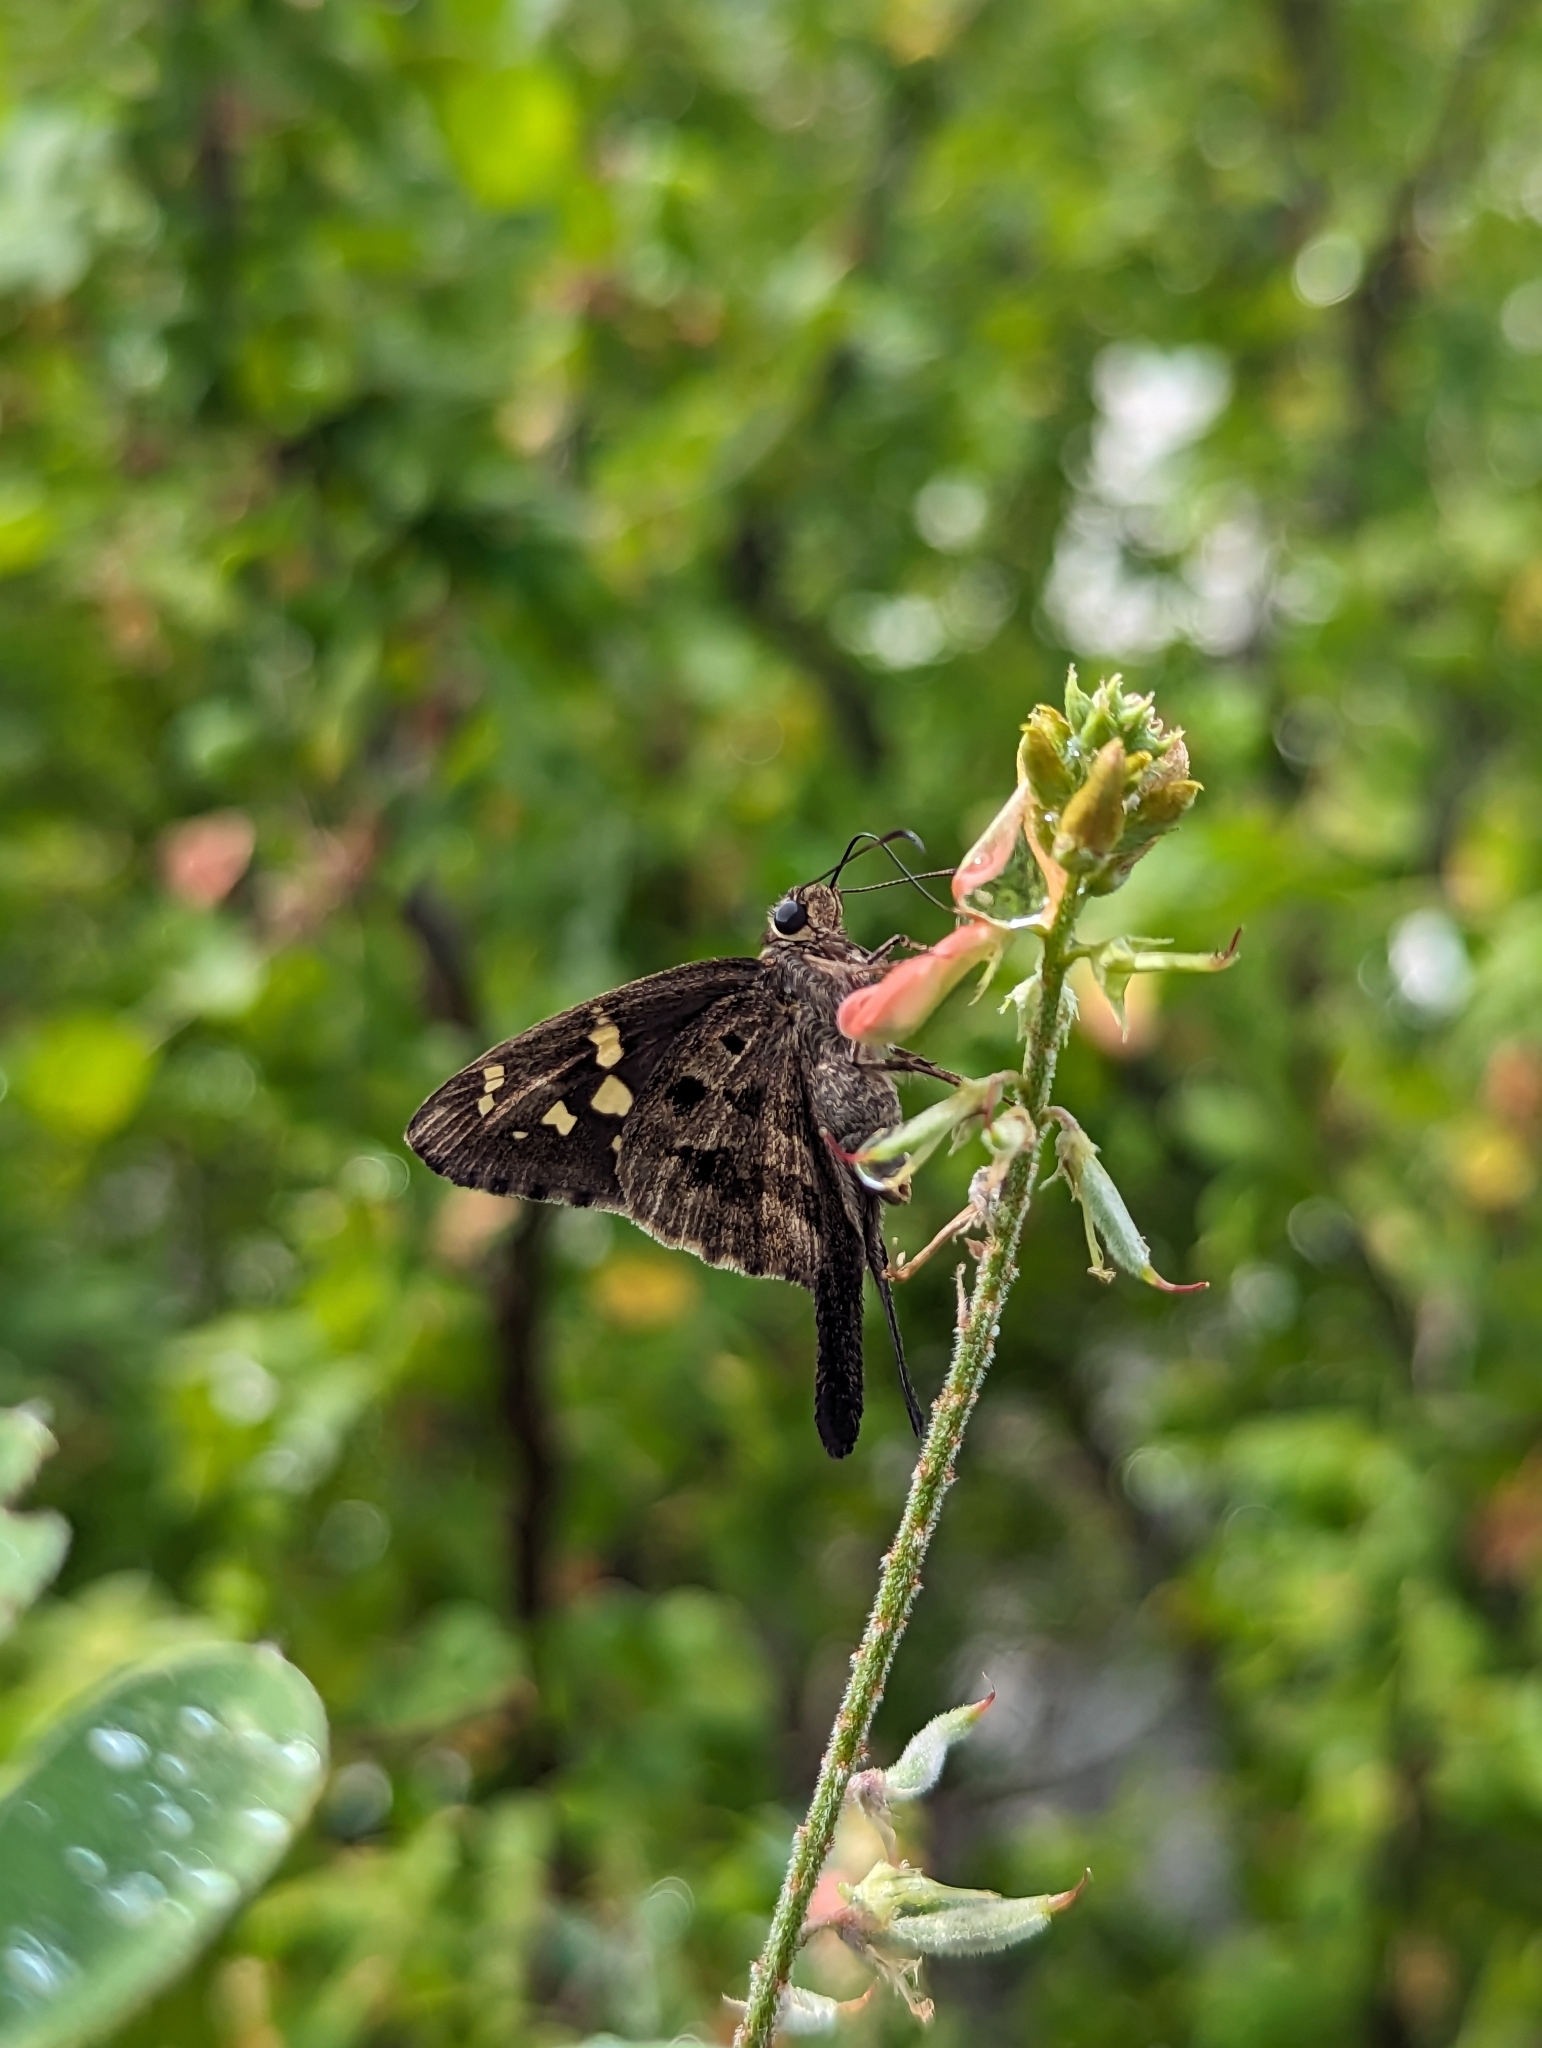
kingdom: Animalia
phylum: Arthropoda
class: Insecta
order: Lepidoptera
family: Hesperiidae
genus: Thorybes
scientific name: Thorybes
